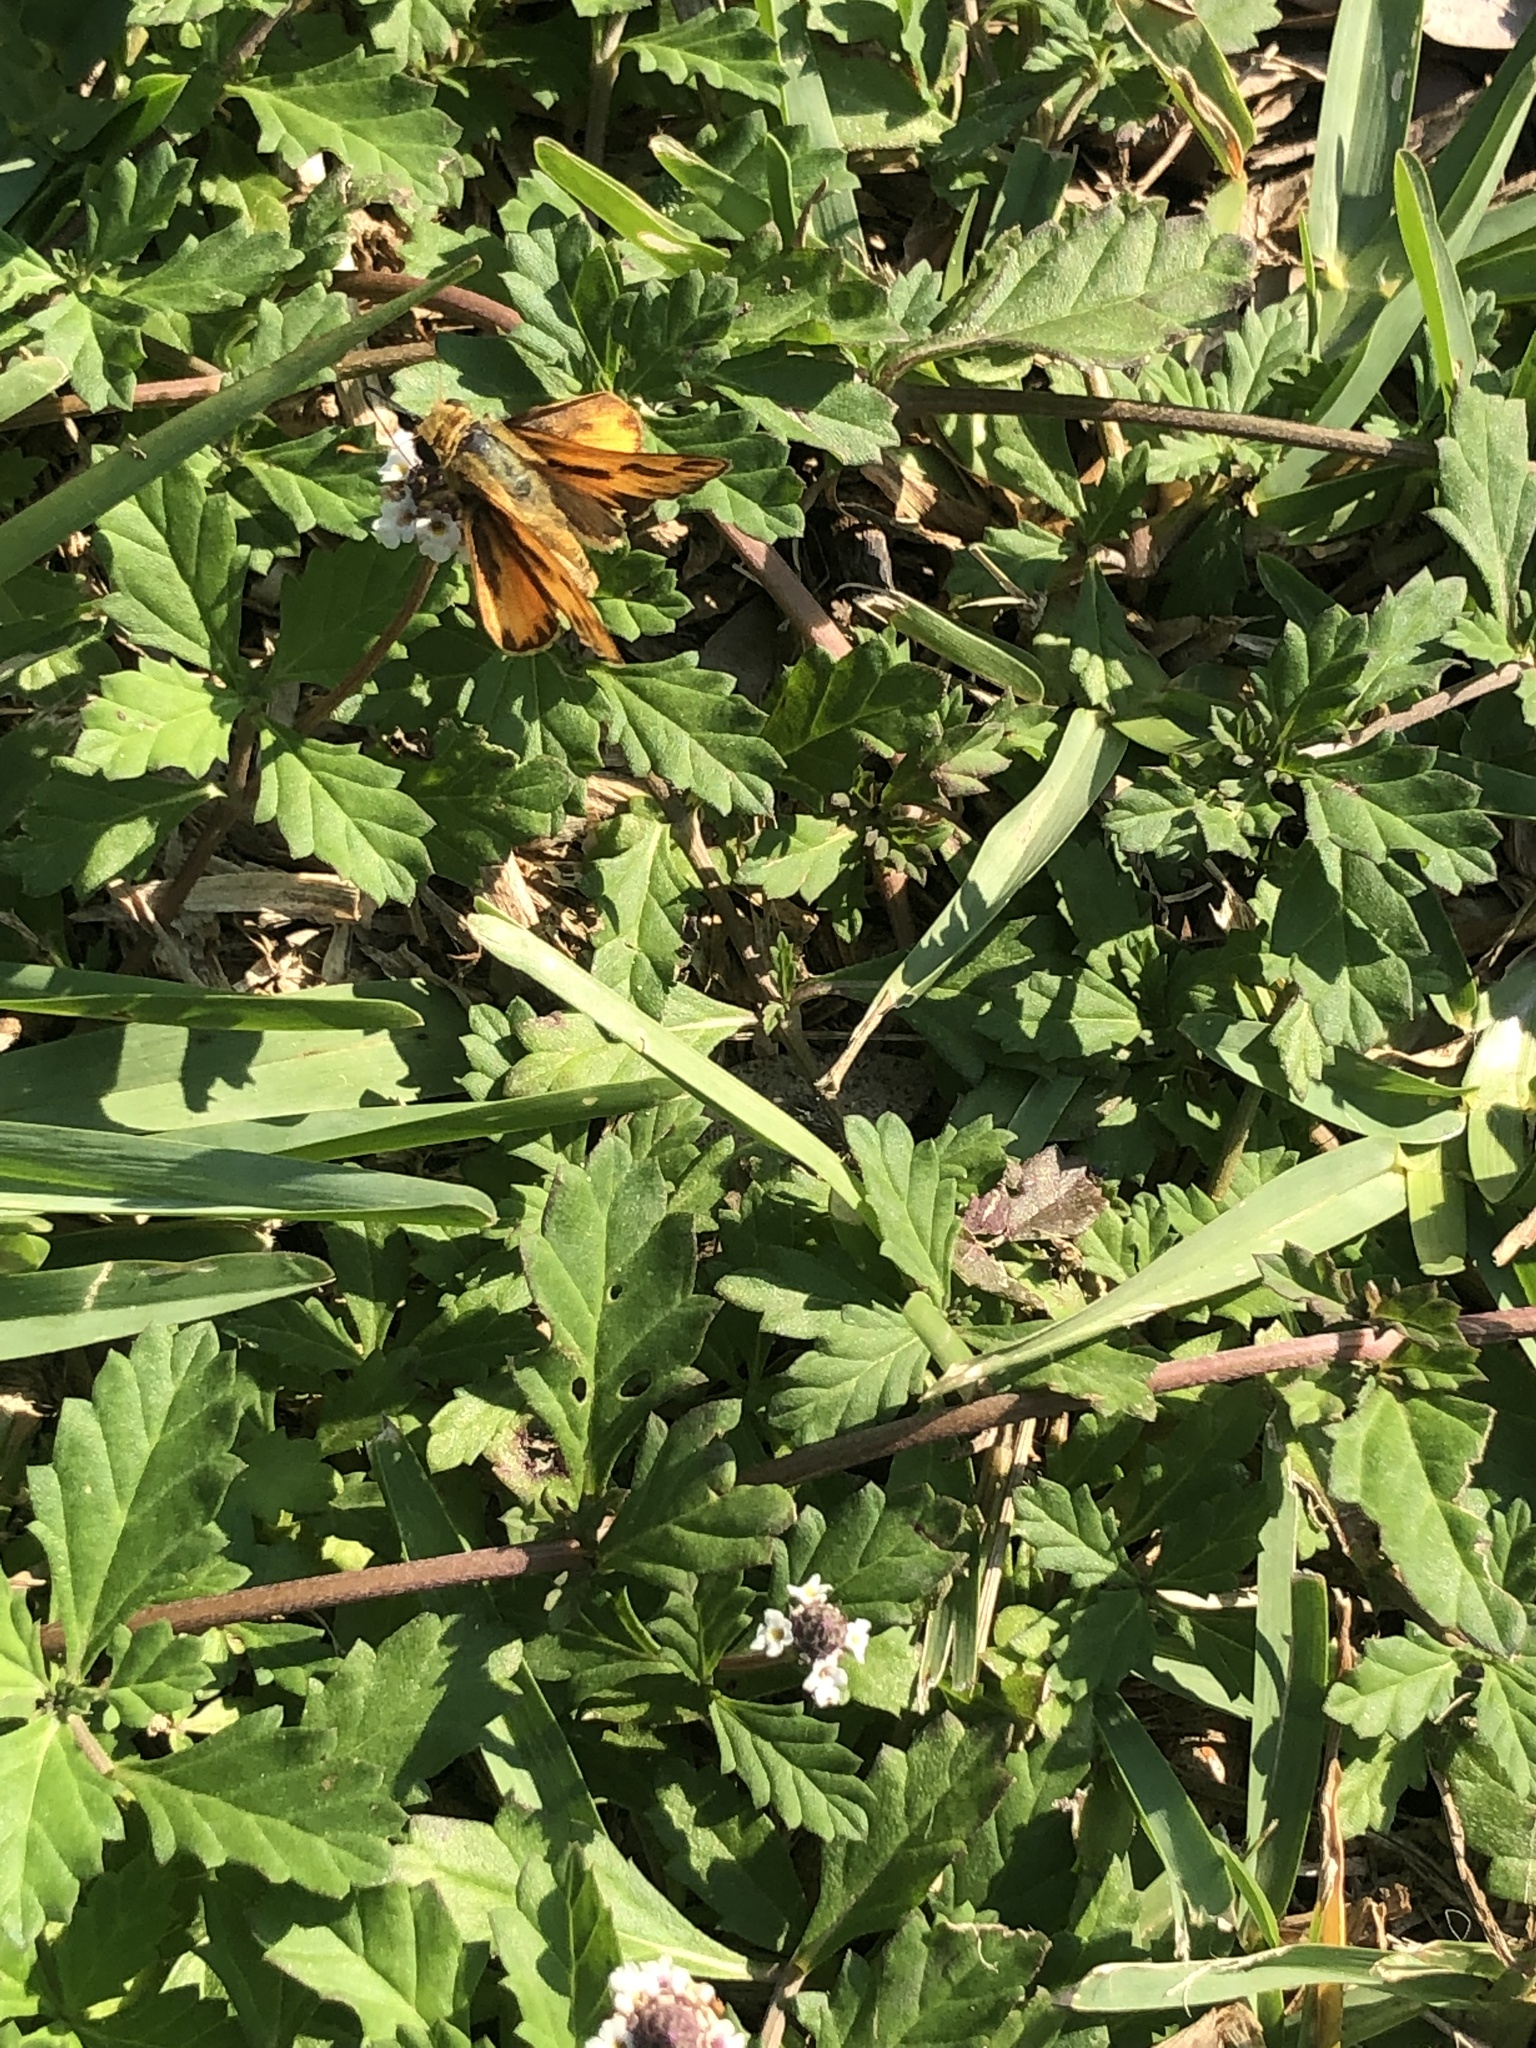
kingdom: Animalia
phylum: Arthropoda
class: Insecta
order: Lepidoptera
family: Hesperiidae
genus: Hylephila
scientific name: Hylephila phyleus
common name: Fiery skipper
